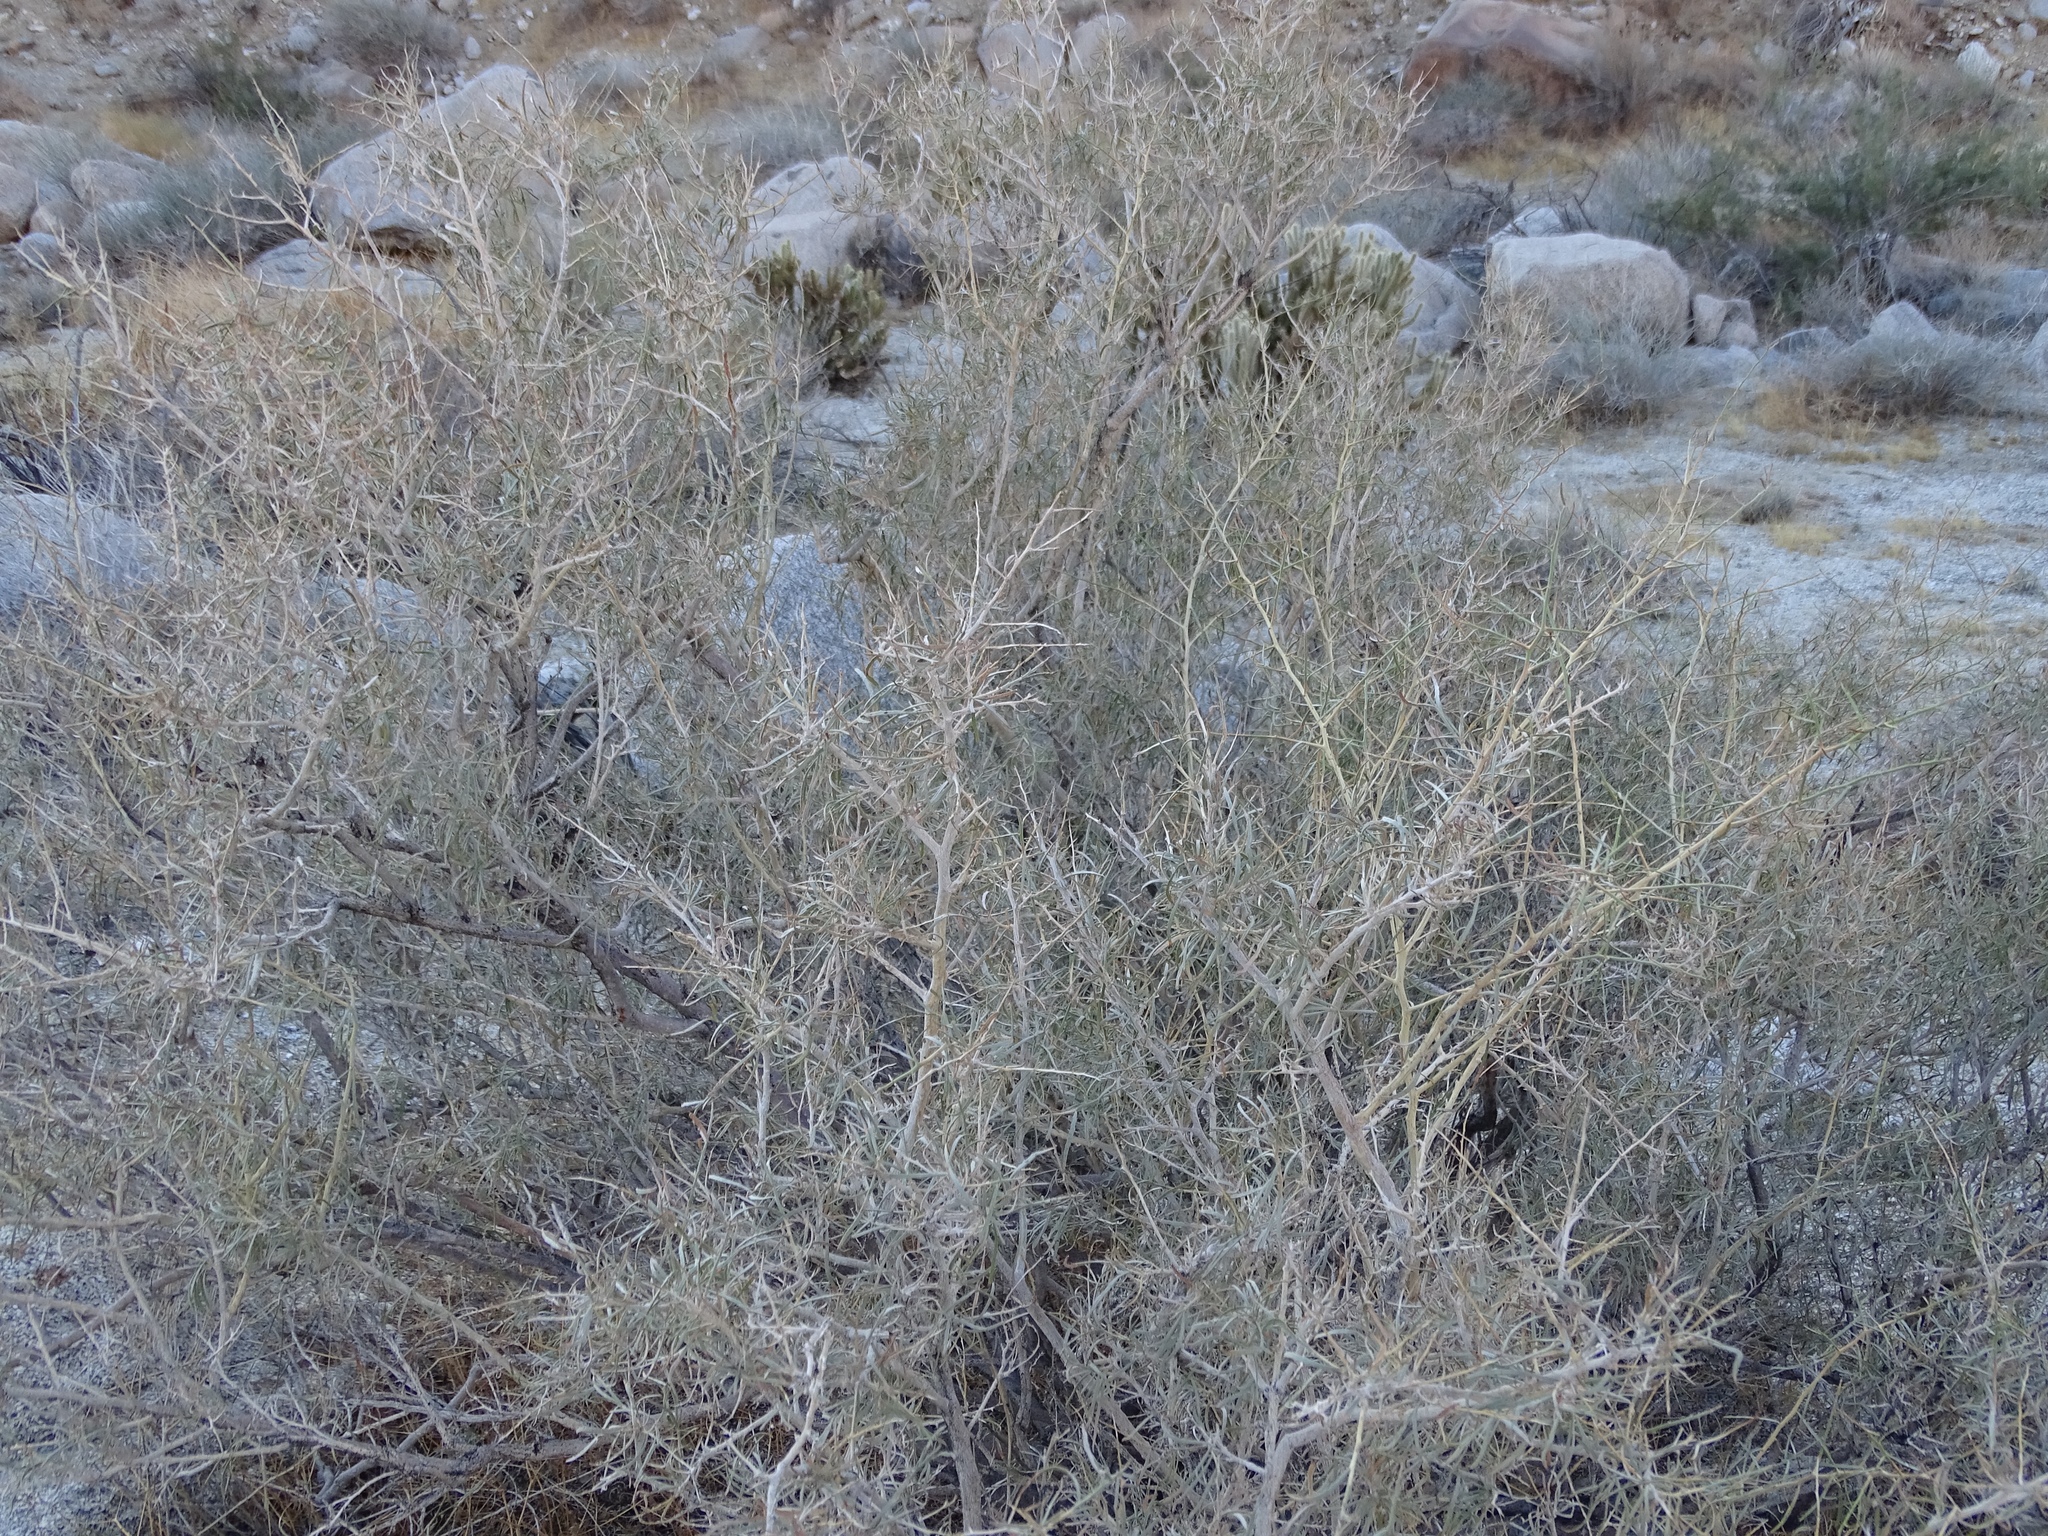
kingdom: Plantae
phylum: Tracheophyta
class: Magnoliopsida
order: Fabales
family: Fabaceae
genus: Psorothamnus
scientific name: Psorothamnus schottii
